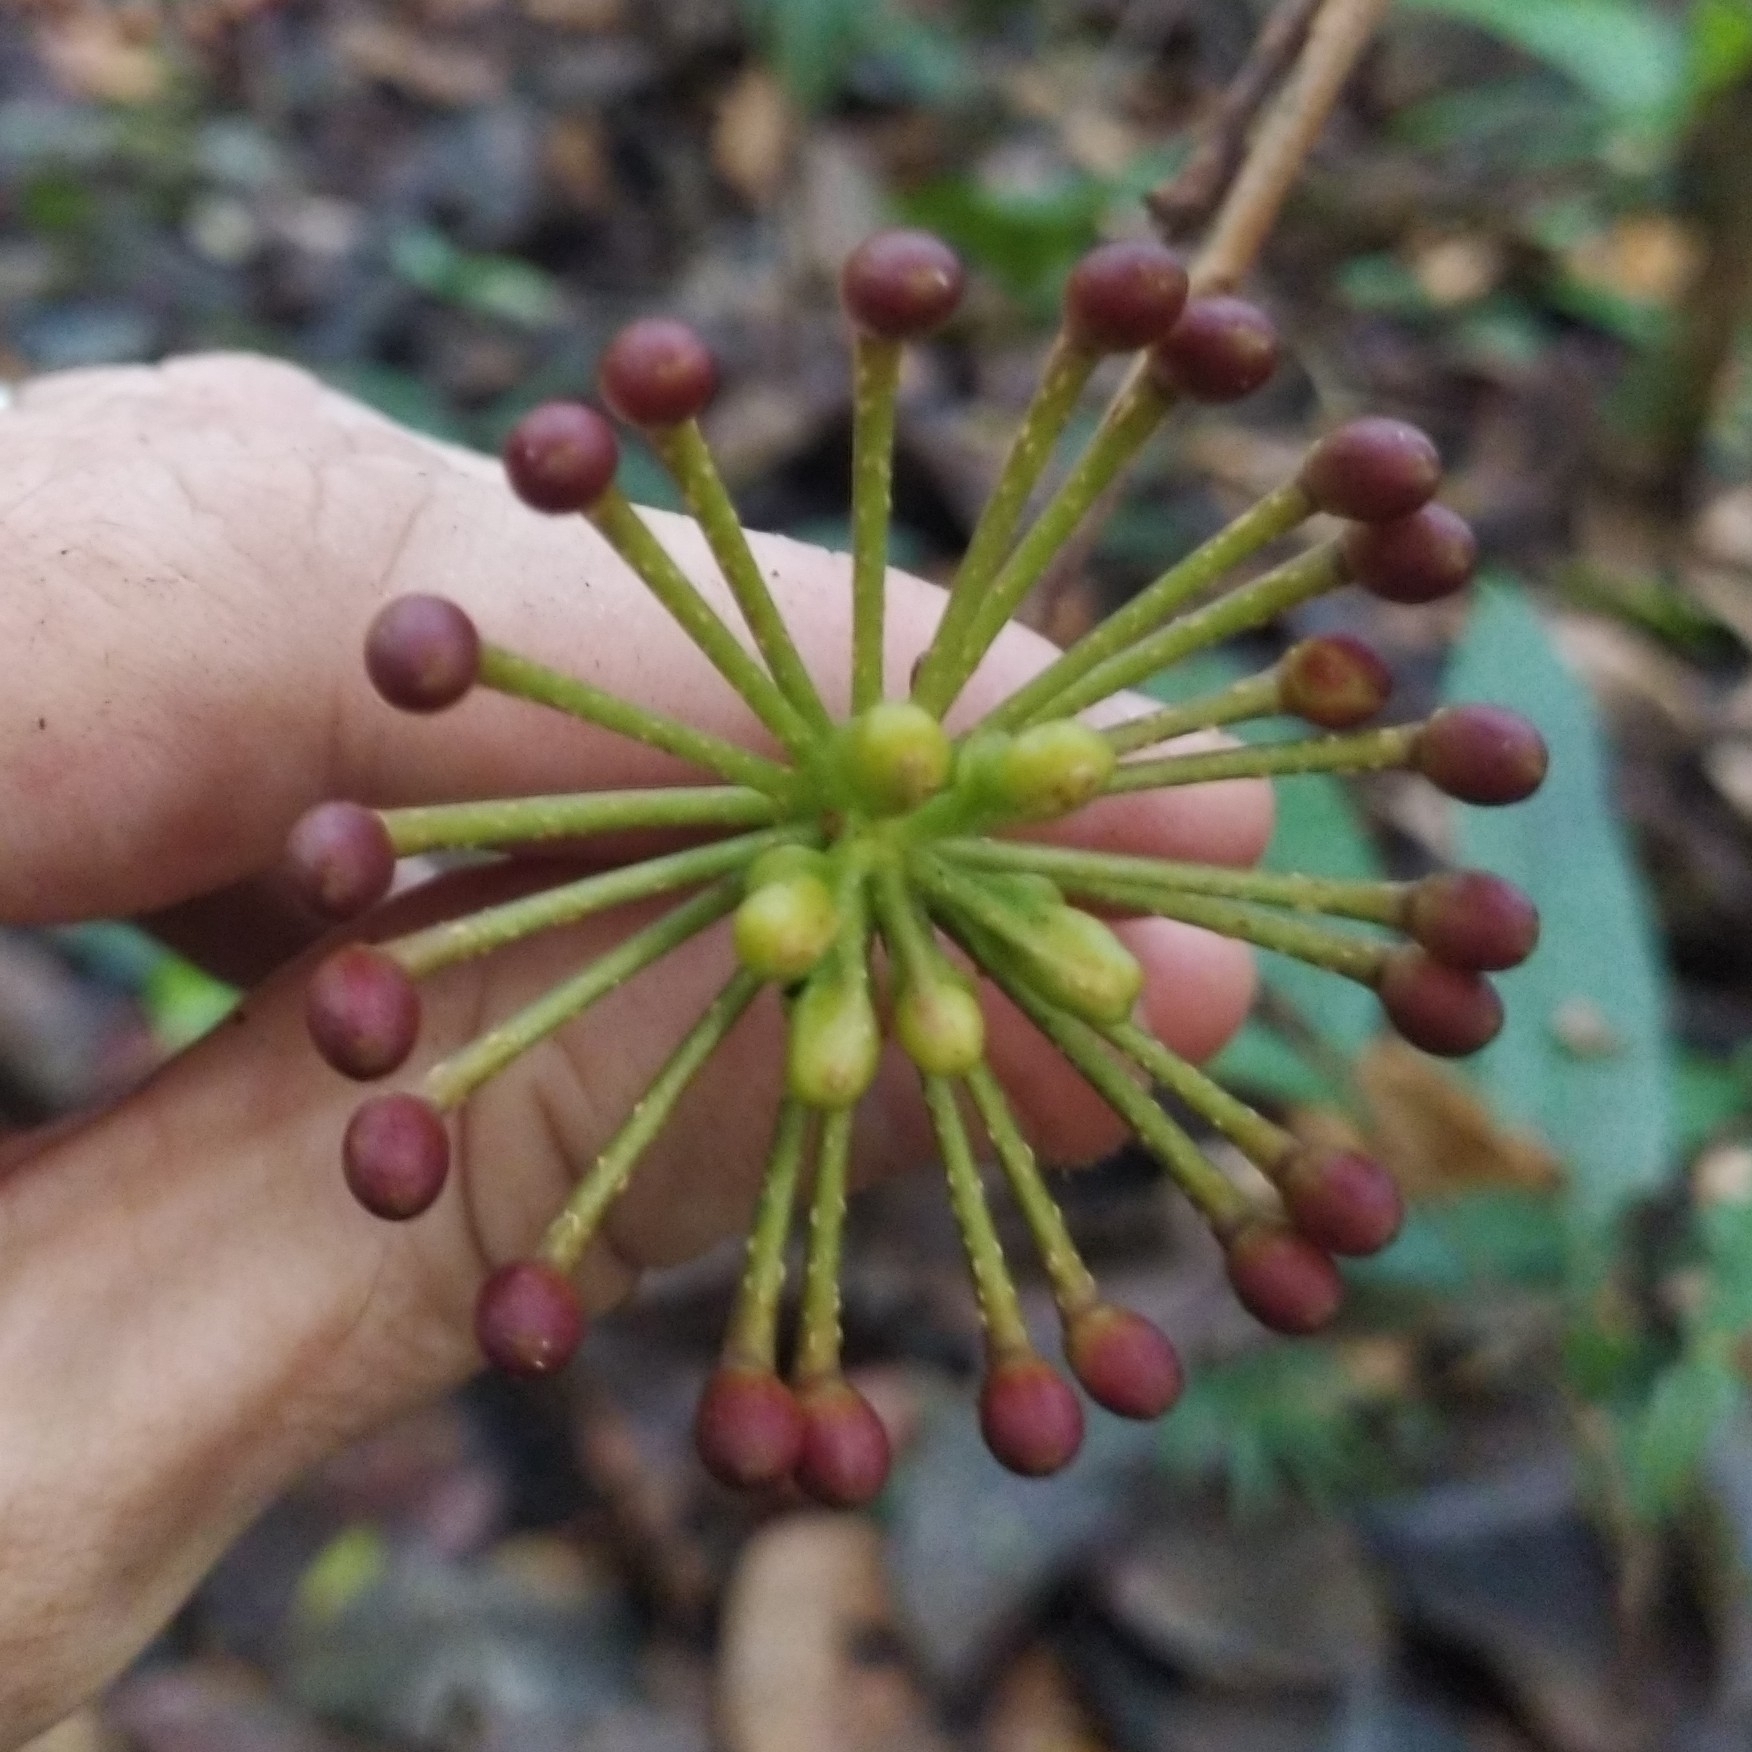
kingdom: Plantae
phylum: Tracheophyta
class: Magnoliopsida
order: Ericales
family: Marcgraviaceae
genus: Marcgravia
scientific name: Marcgravia pedunculosa
